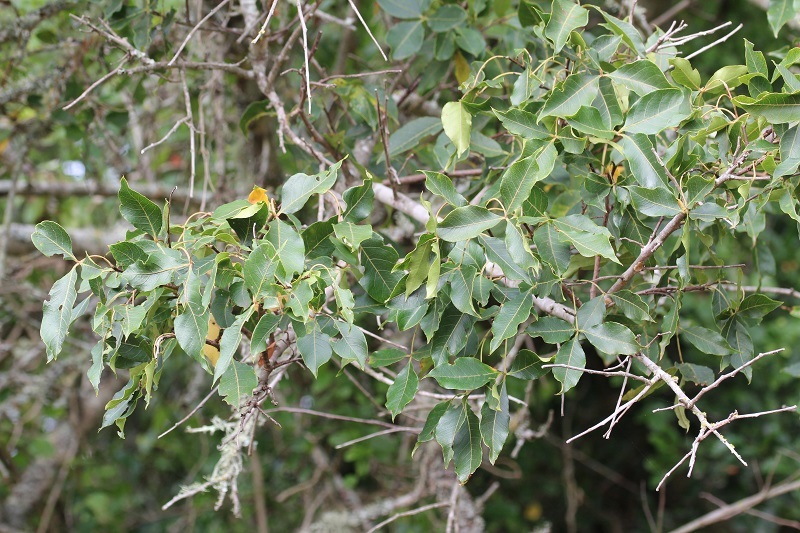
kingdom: Plantae
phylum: Tracheophyta
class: Magnoliopsida
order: Sapindales
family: Anacardiaceae
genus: Searsia
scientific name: Searsia chirindensis
